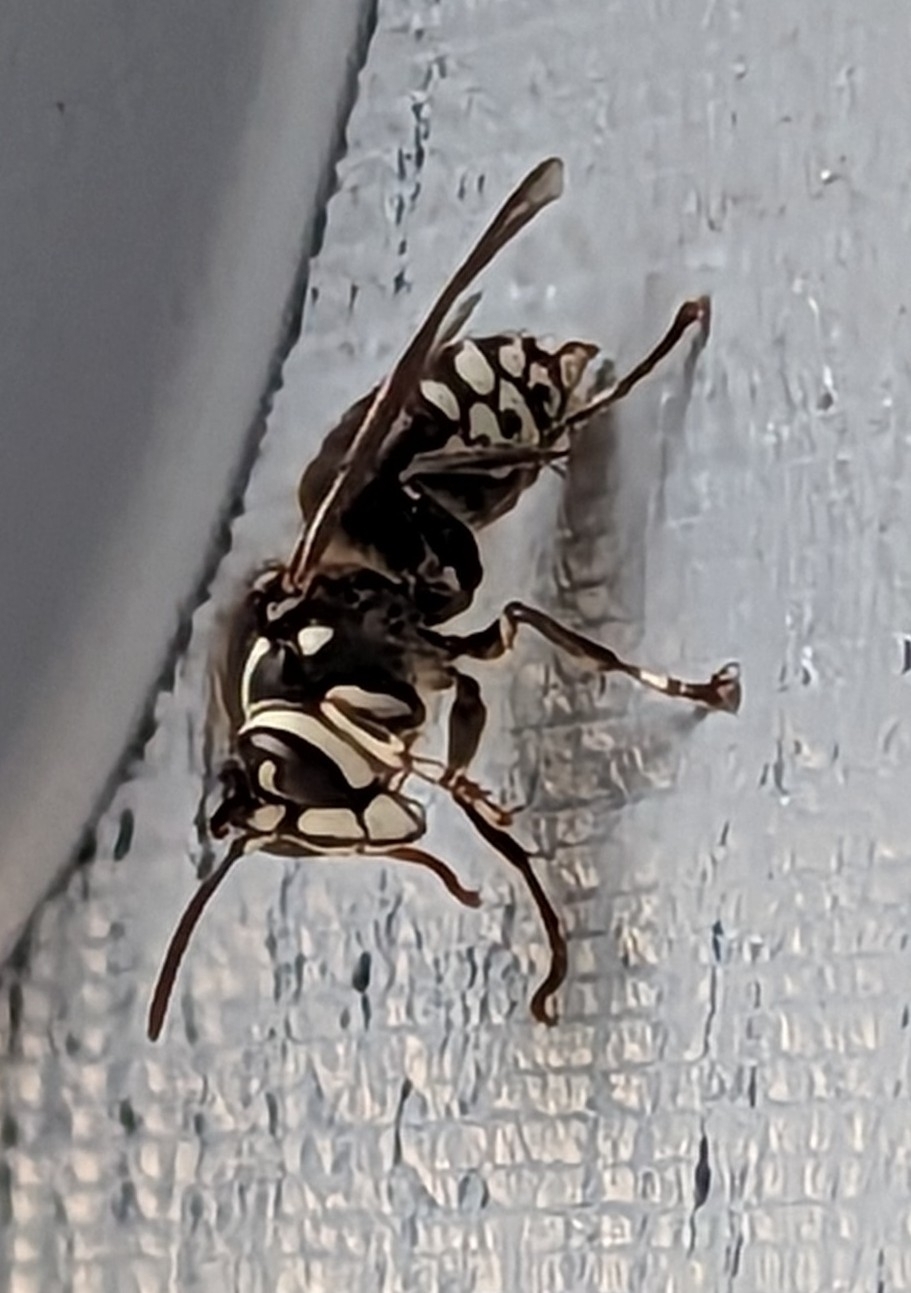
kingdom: Animalia
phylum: Arthropoda
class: Insecta
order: Hymenoptera
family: Vespidae
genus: Dolichovespula
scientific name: Dolichovespula maculata
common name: Bald-faced hornet
